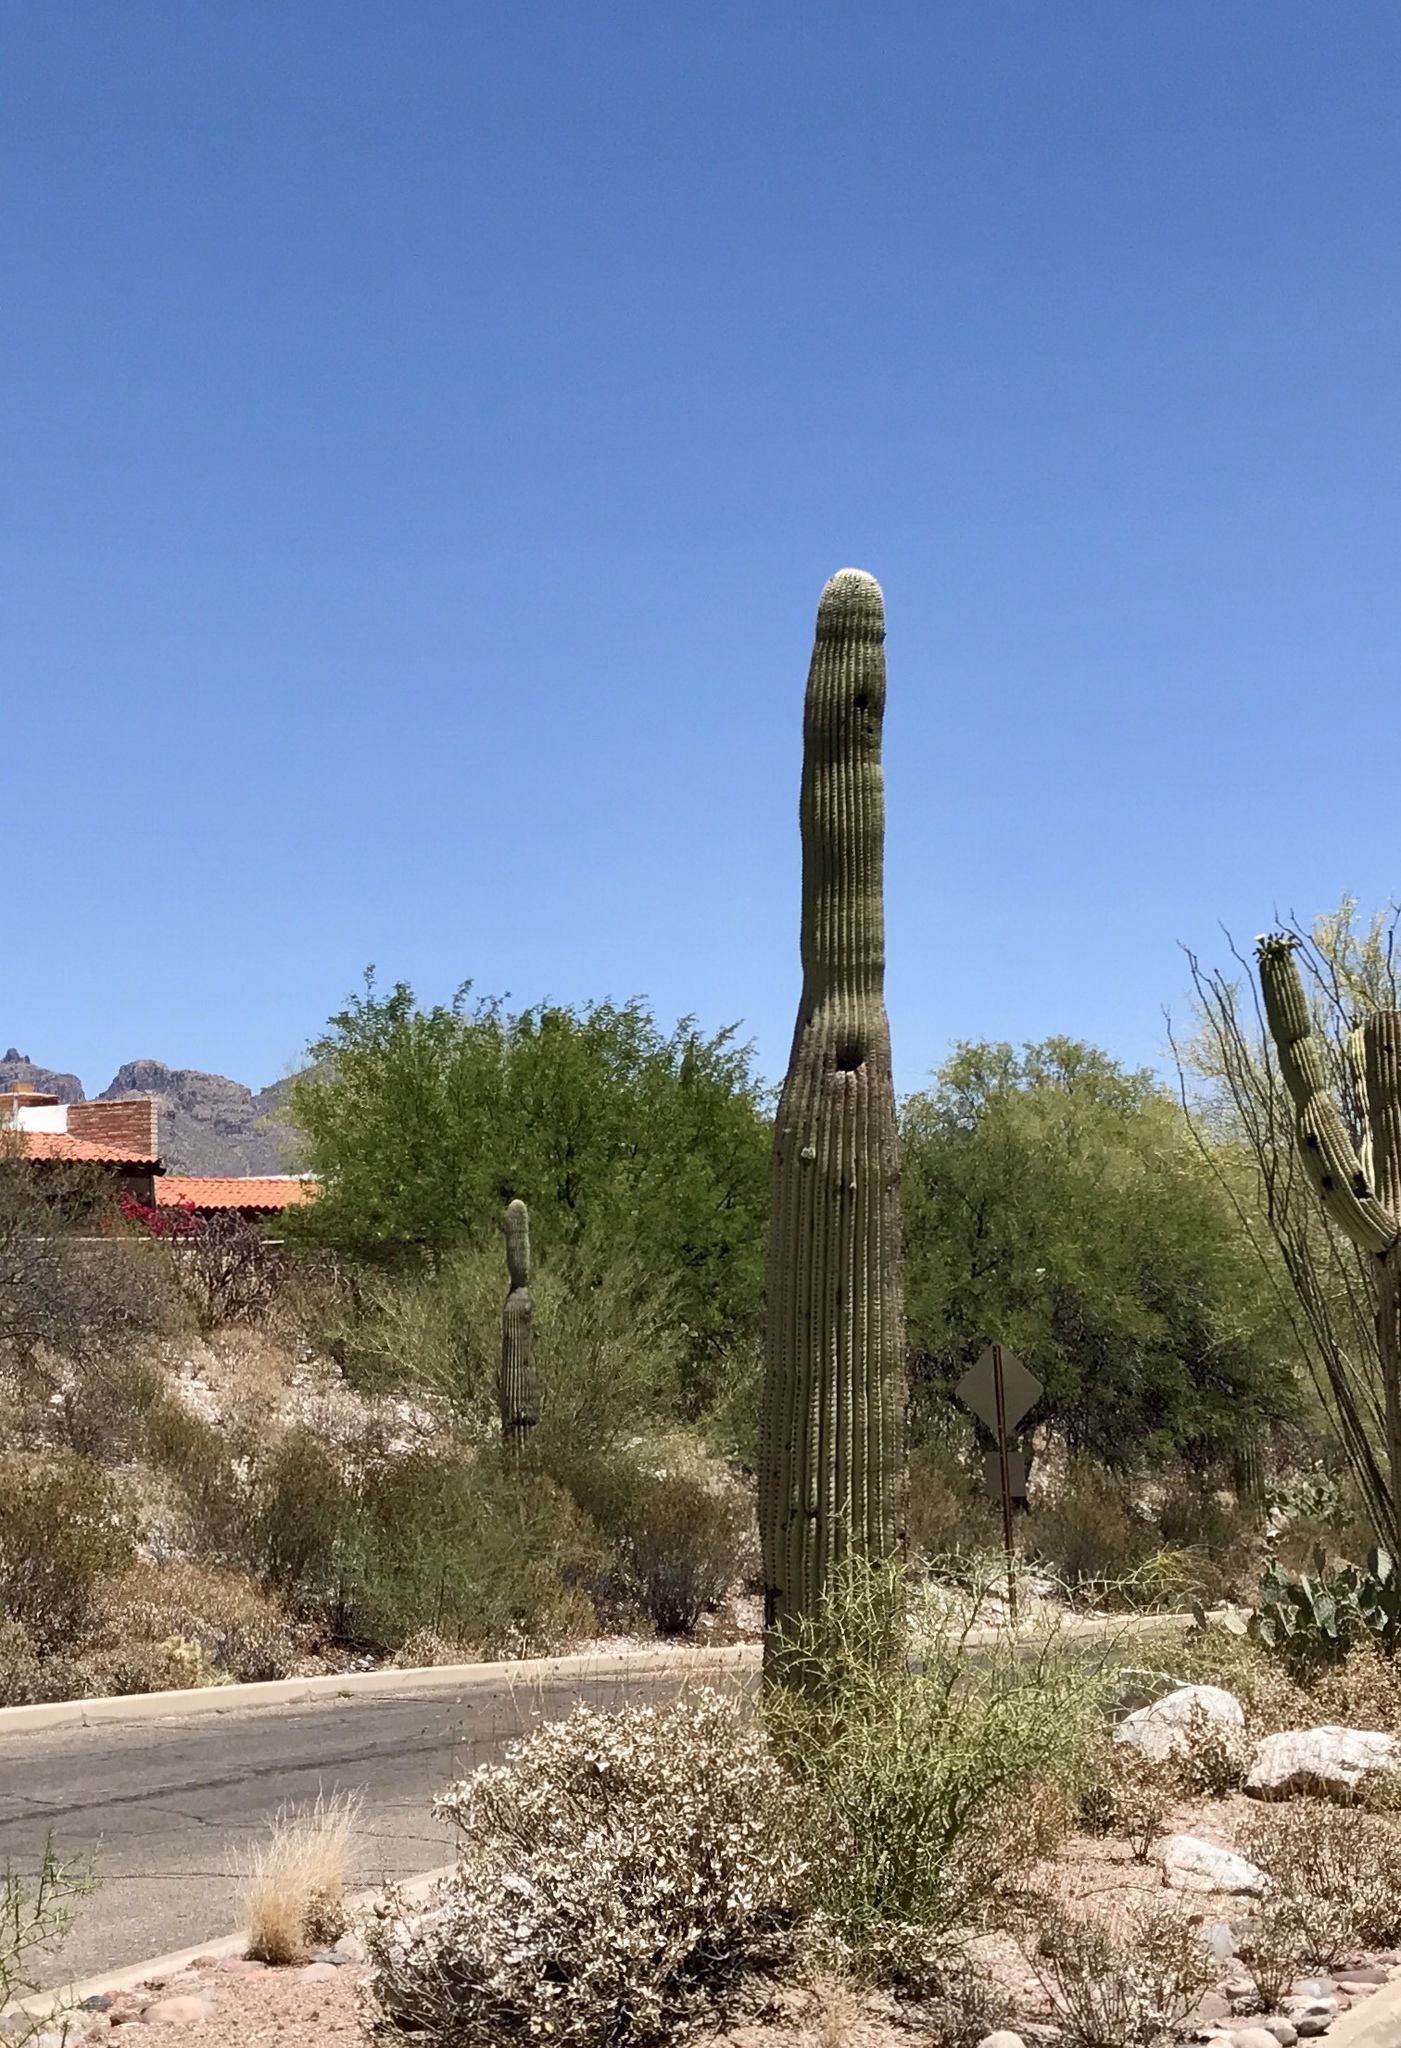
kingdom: Plantae
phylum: Tracheophyta
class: Magnoliopsida
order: Caryophyllales
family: Cactaceae
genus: Carnegiea
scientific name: Carnegiea gigantea
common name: Saguaro
